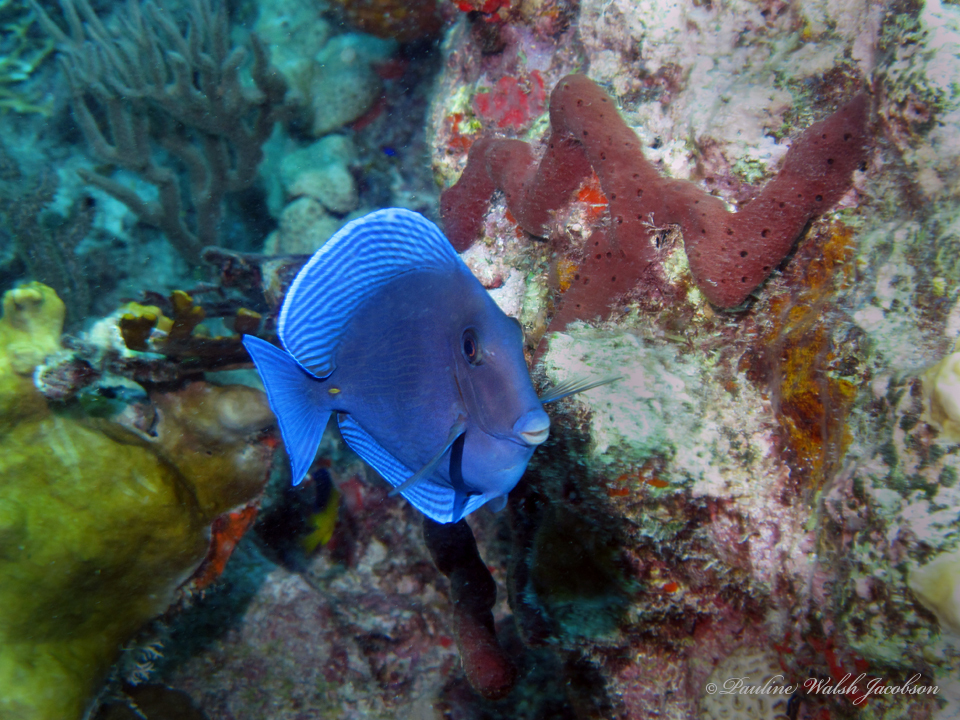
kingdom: Animalia
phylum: Chordata
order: Perciformes
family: Acanthuridae
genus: Acanthurus
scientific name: Acanthurus coeruleus
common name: Blue tang
